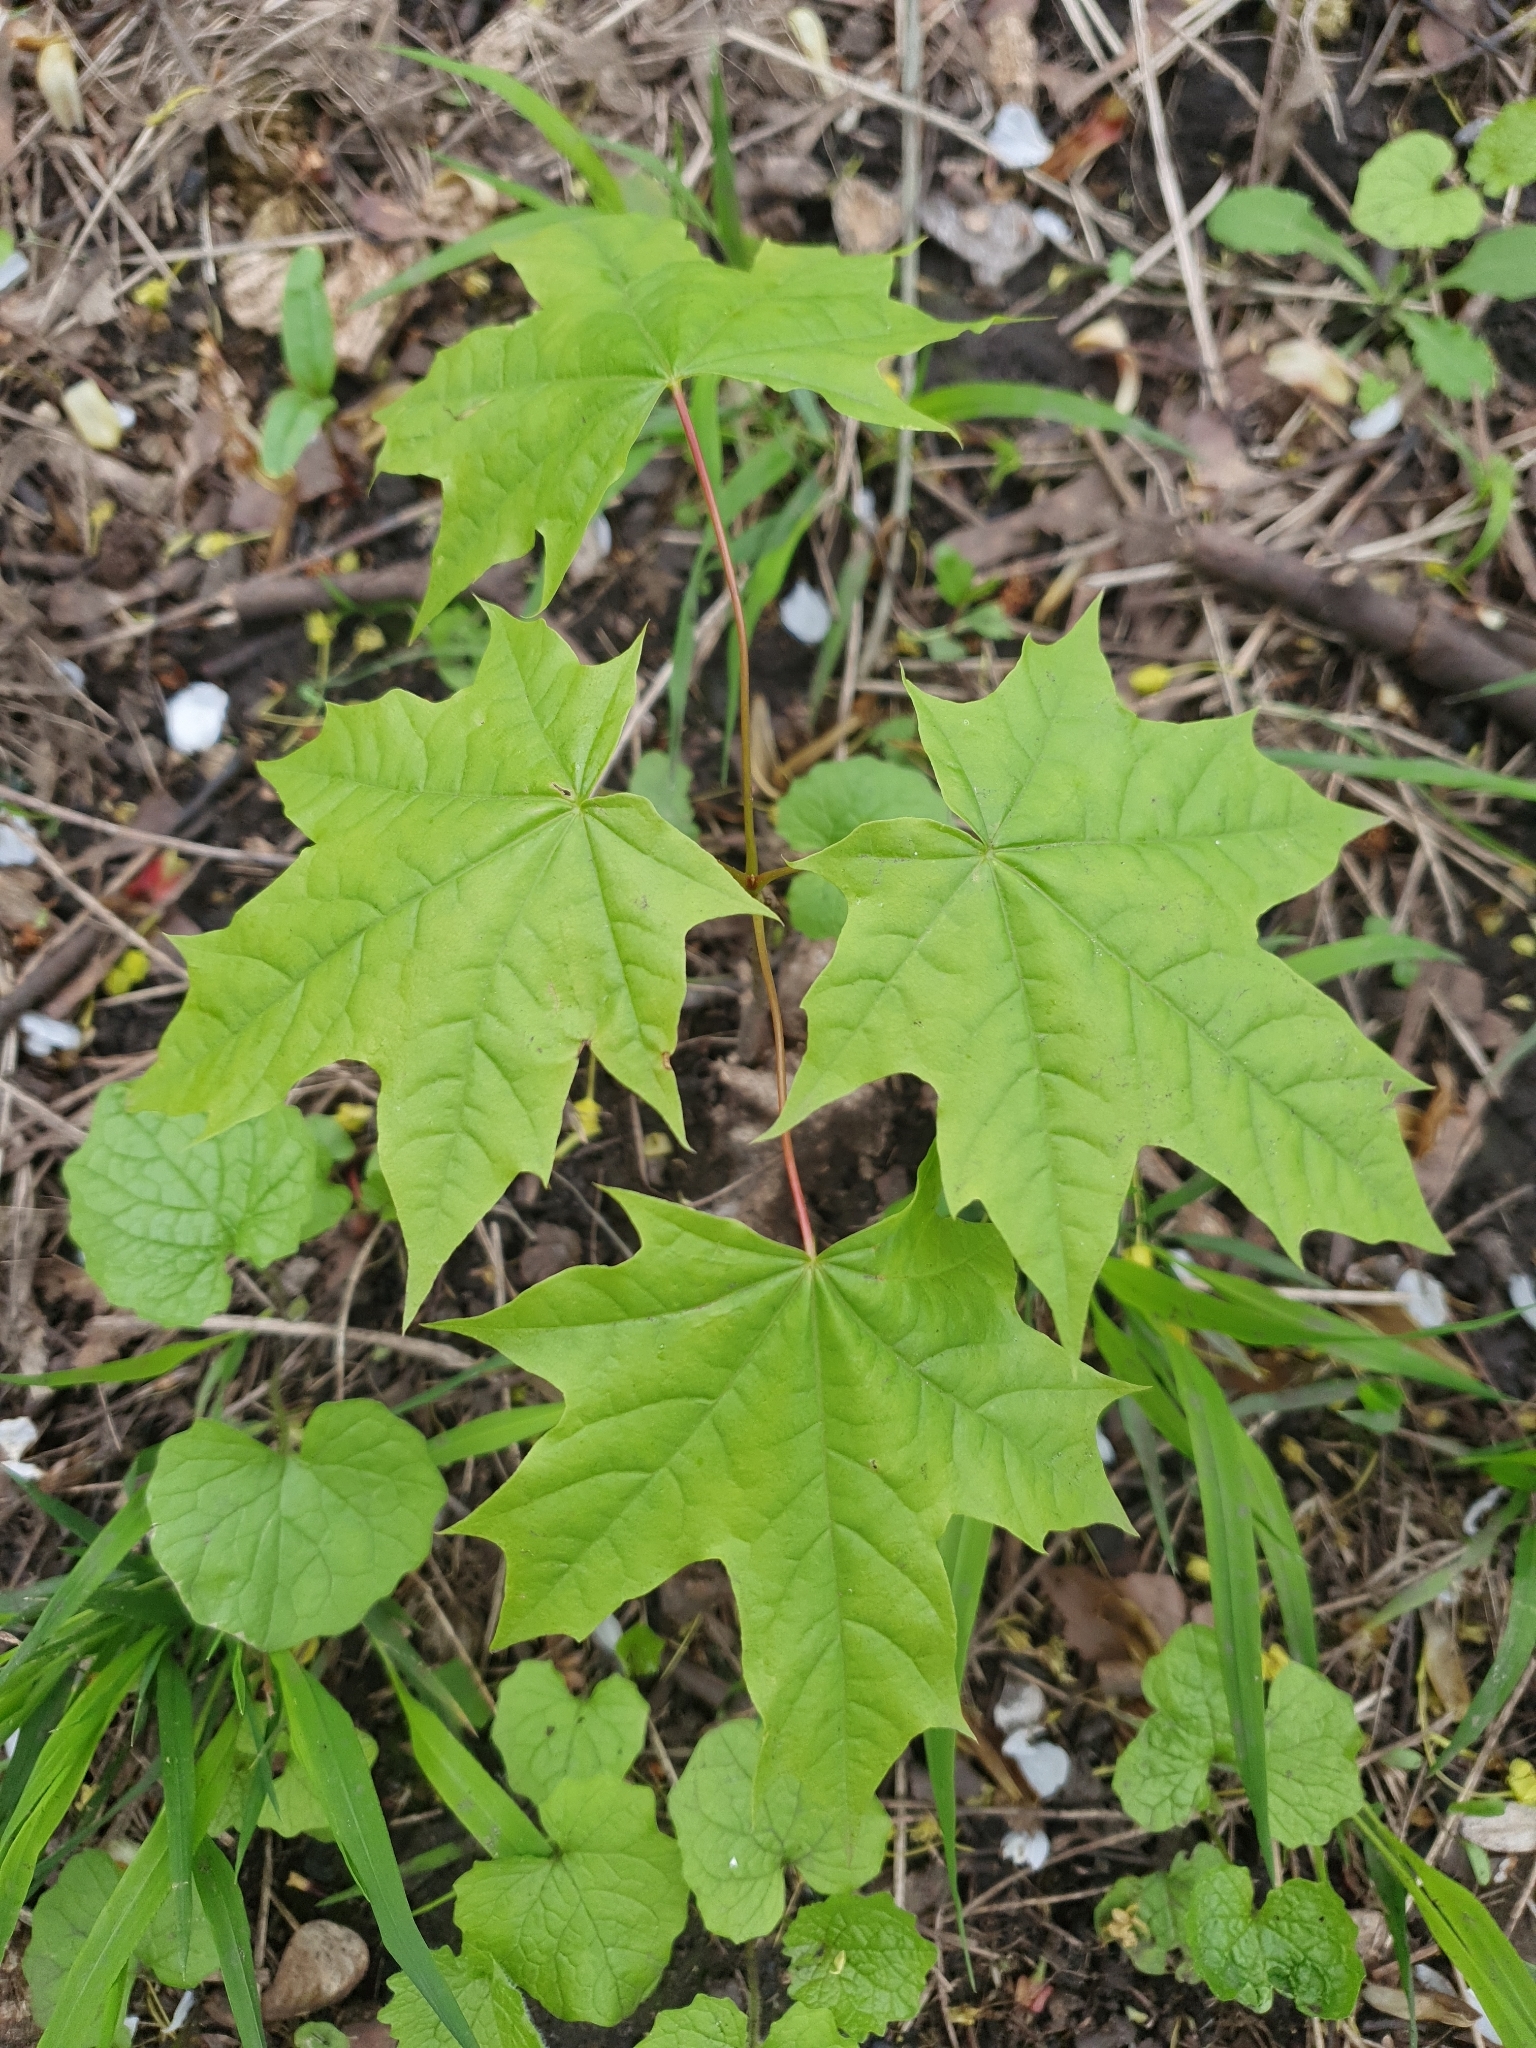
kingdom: Plantae
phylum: Tracheophyta
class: Magnoliopsida
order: Sapindales
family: Sapindaceae
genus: Acer
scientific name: Acer platanoides
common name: Norway maple
